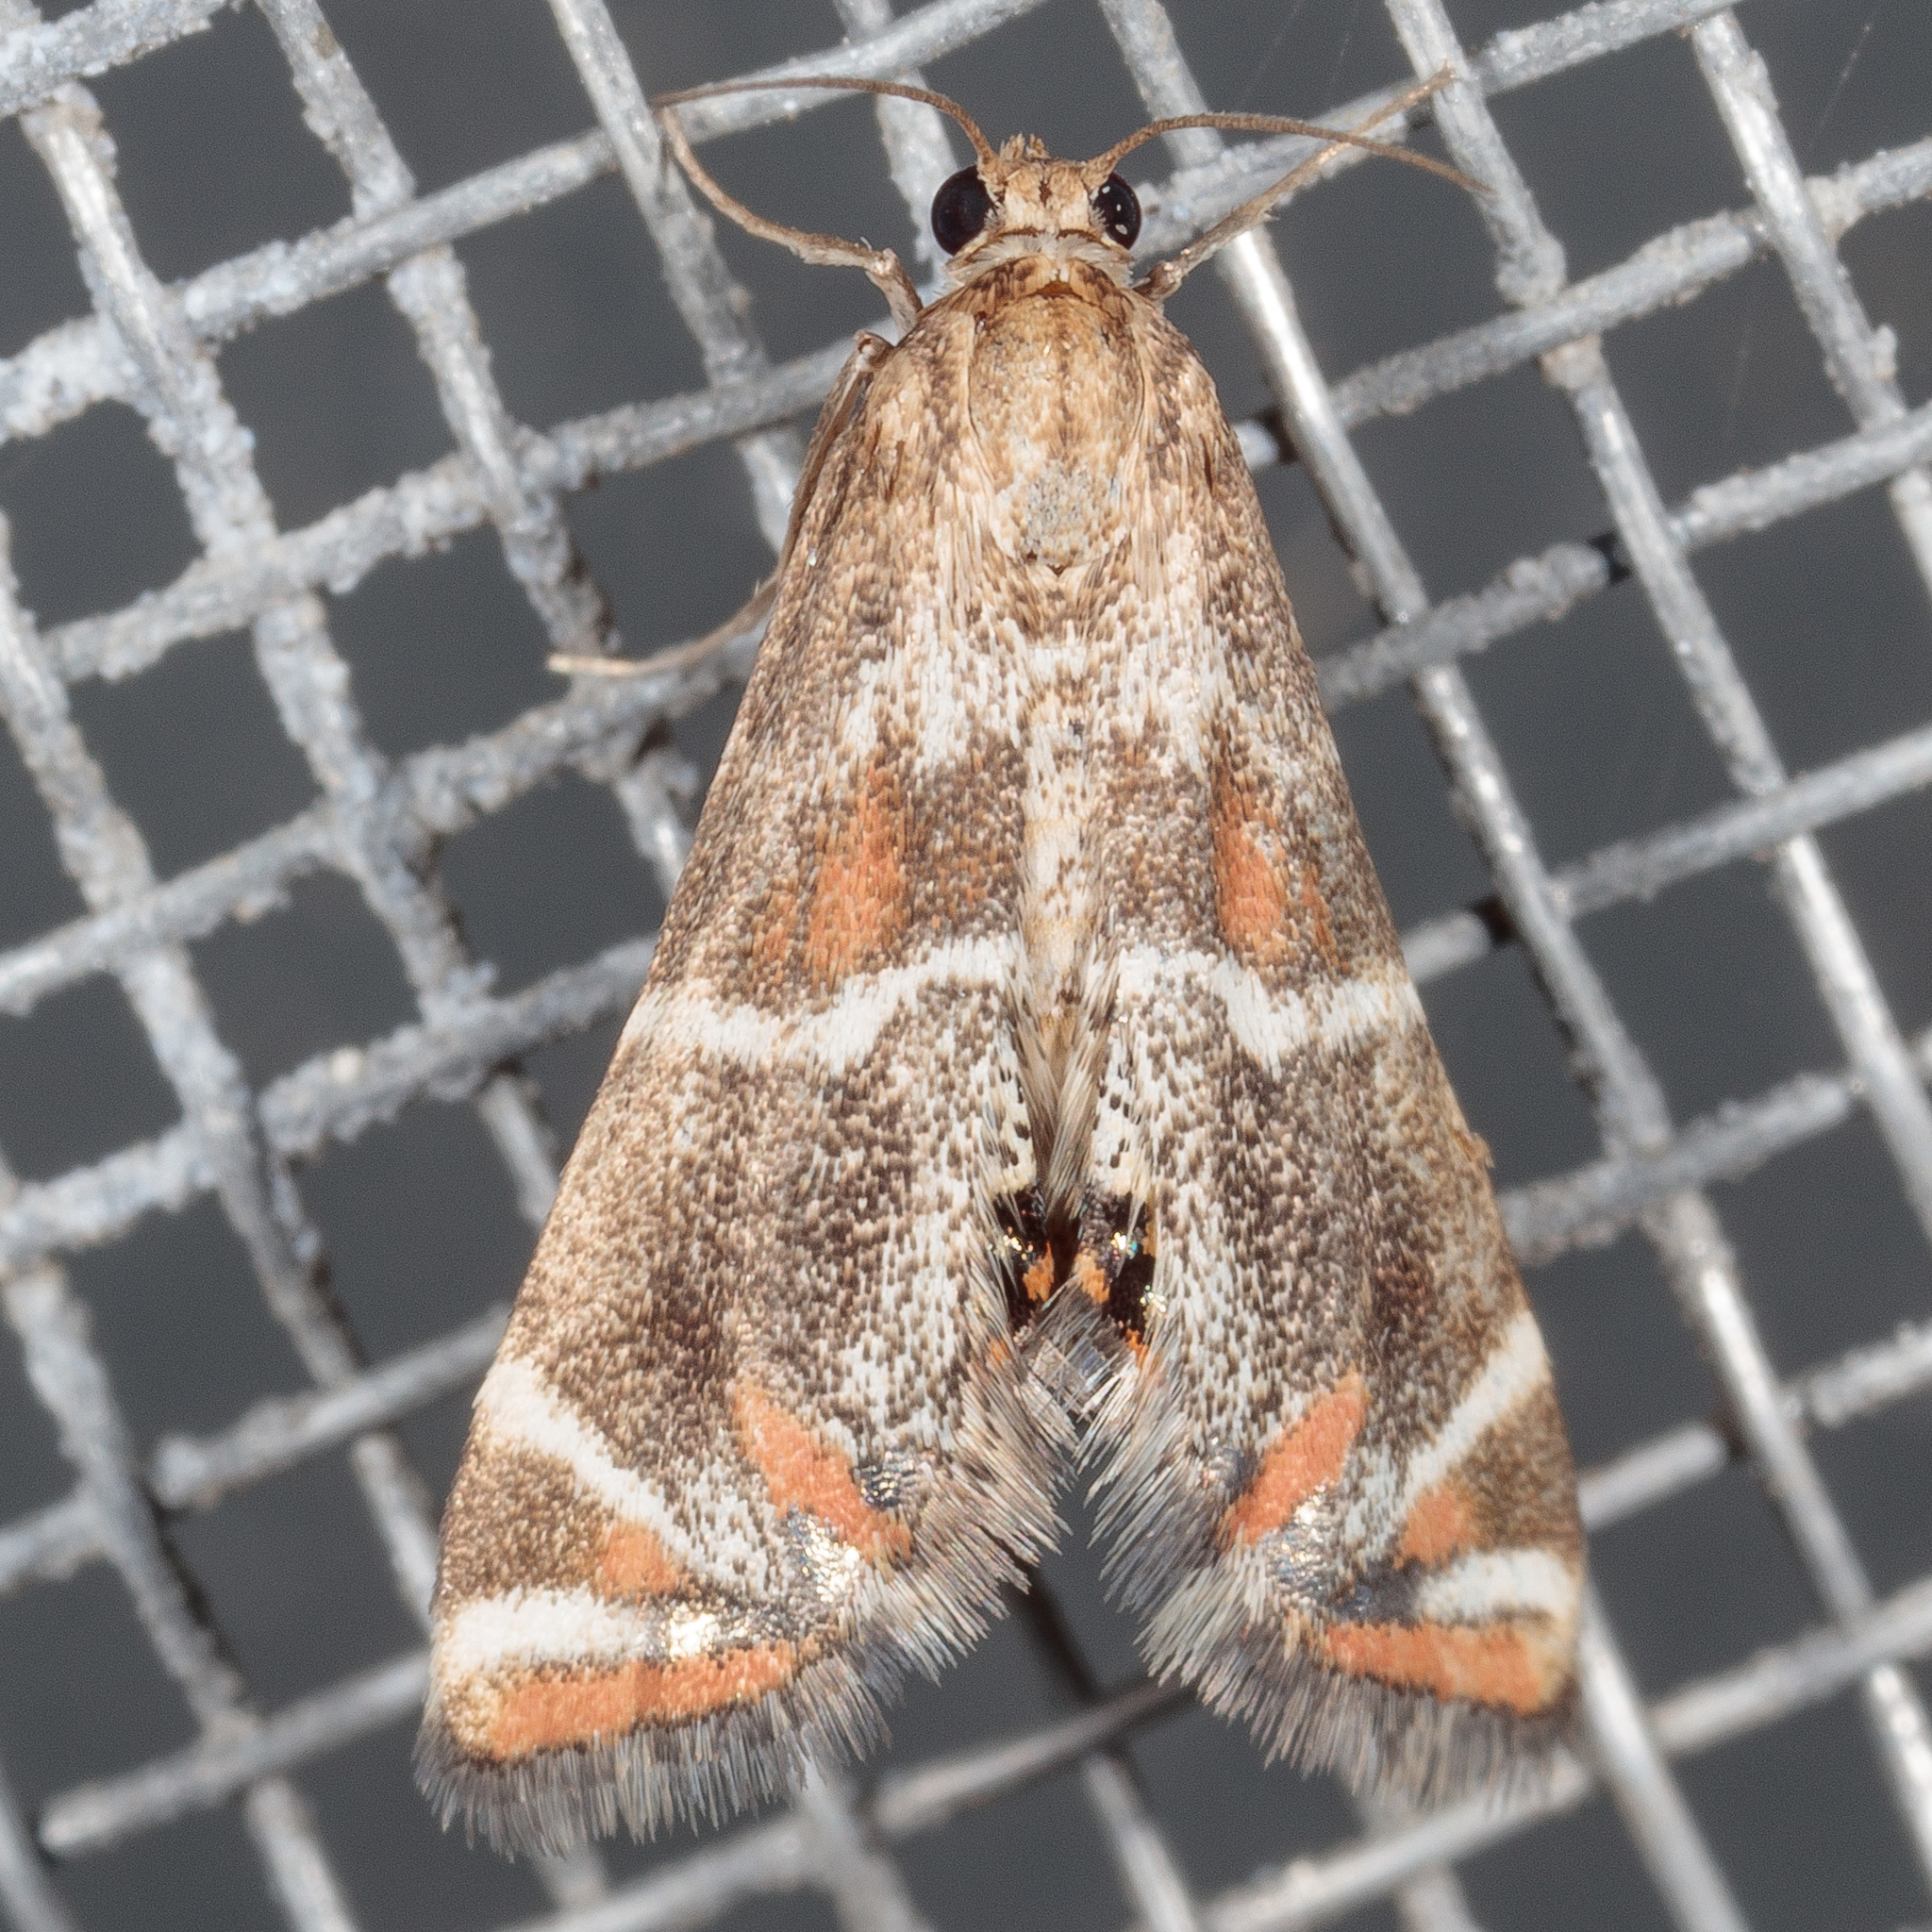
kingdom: Animalia
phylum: Arthropoda
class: Insecta
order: Lepidoptera
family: Crambidae
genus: Petrophila
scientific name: Petrophila jaliscalis
